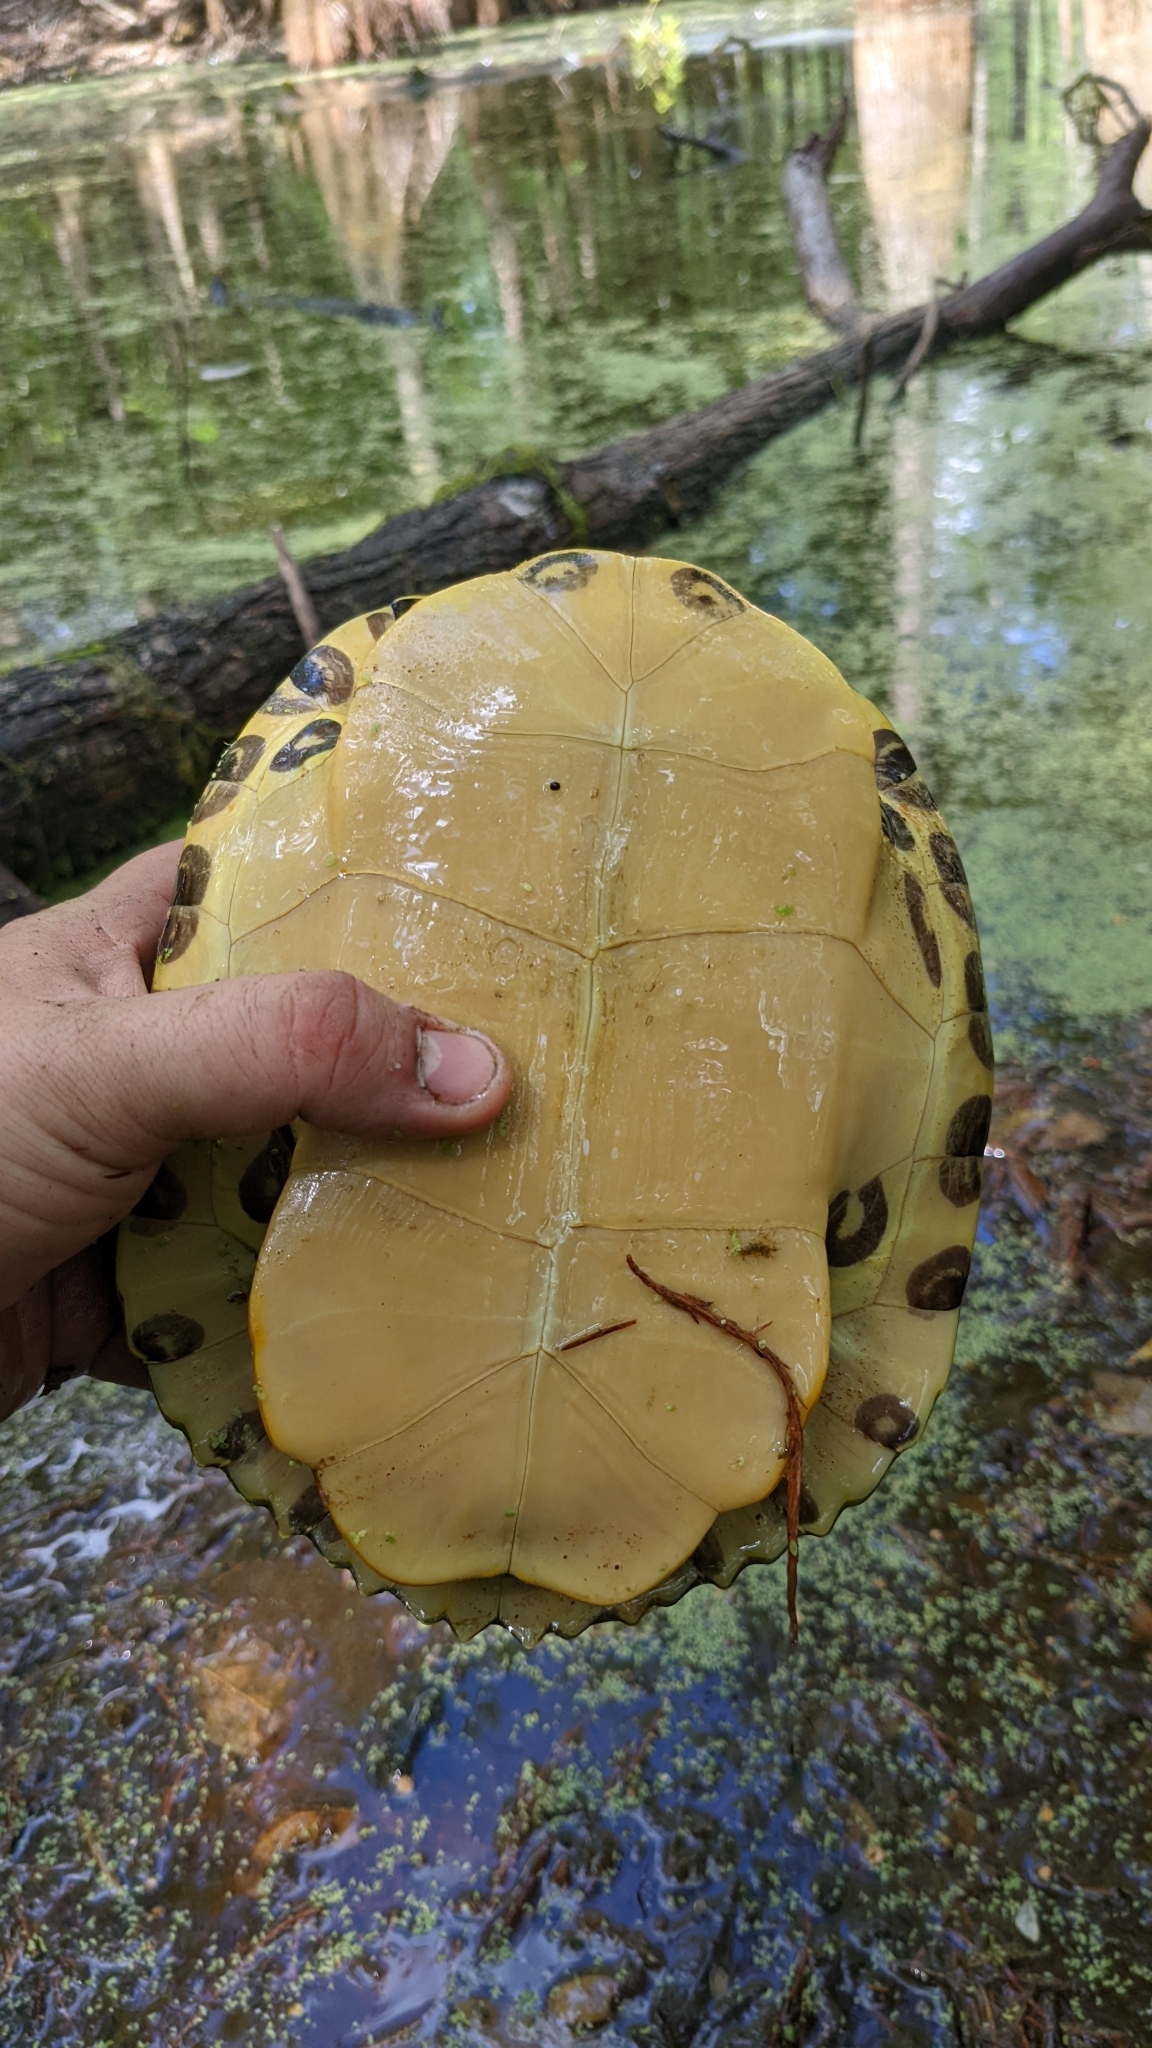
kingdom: Animalia
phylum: Chordata
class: Testudines
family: Emydidae
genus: Trachemys
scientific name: Trachemys scripta
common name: Slider
